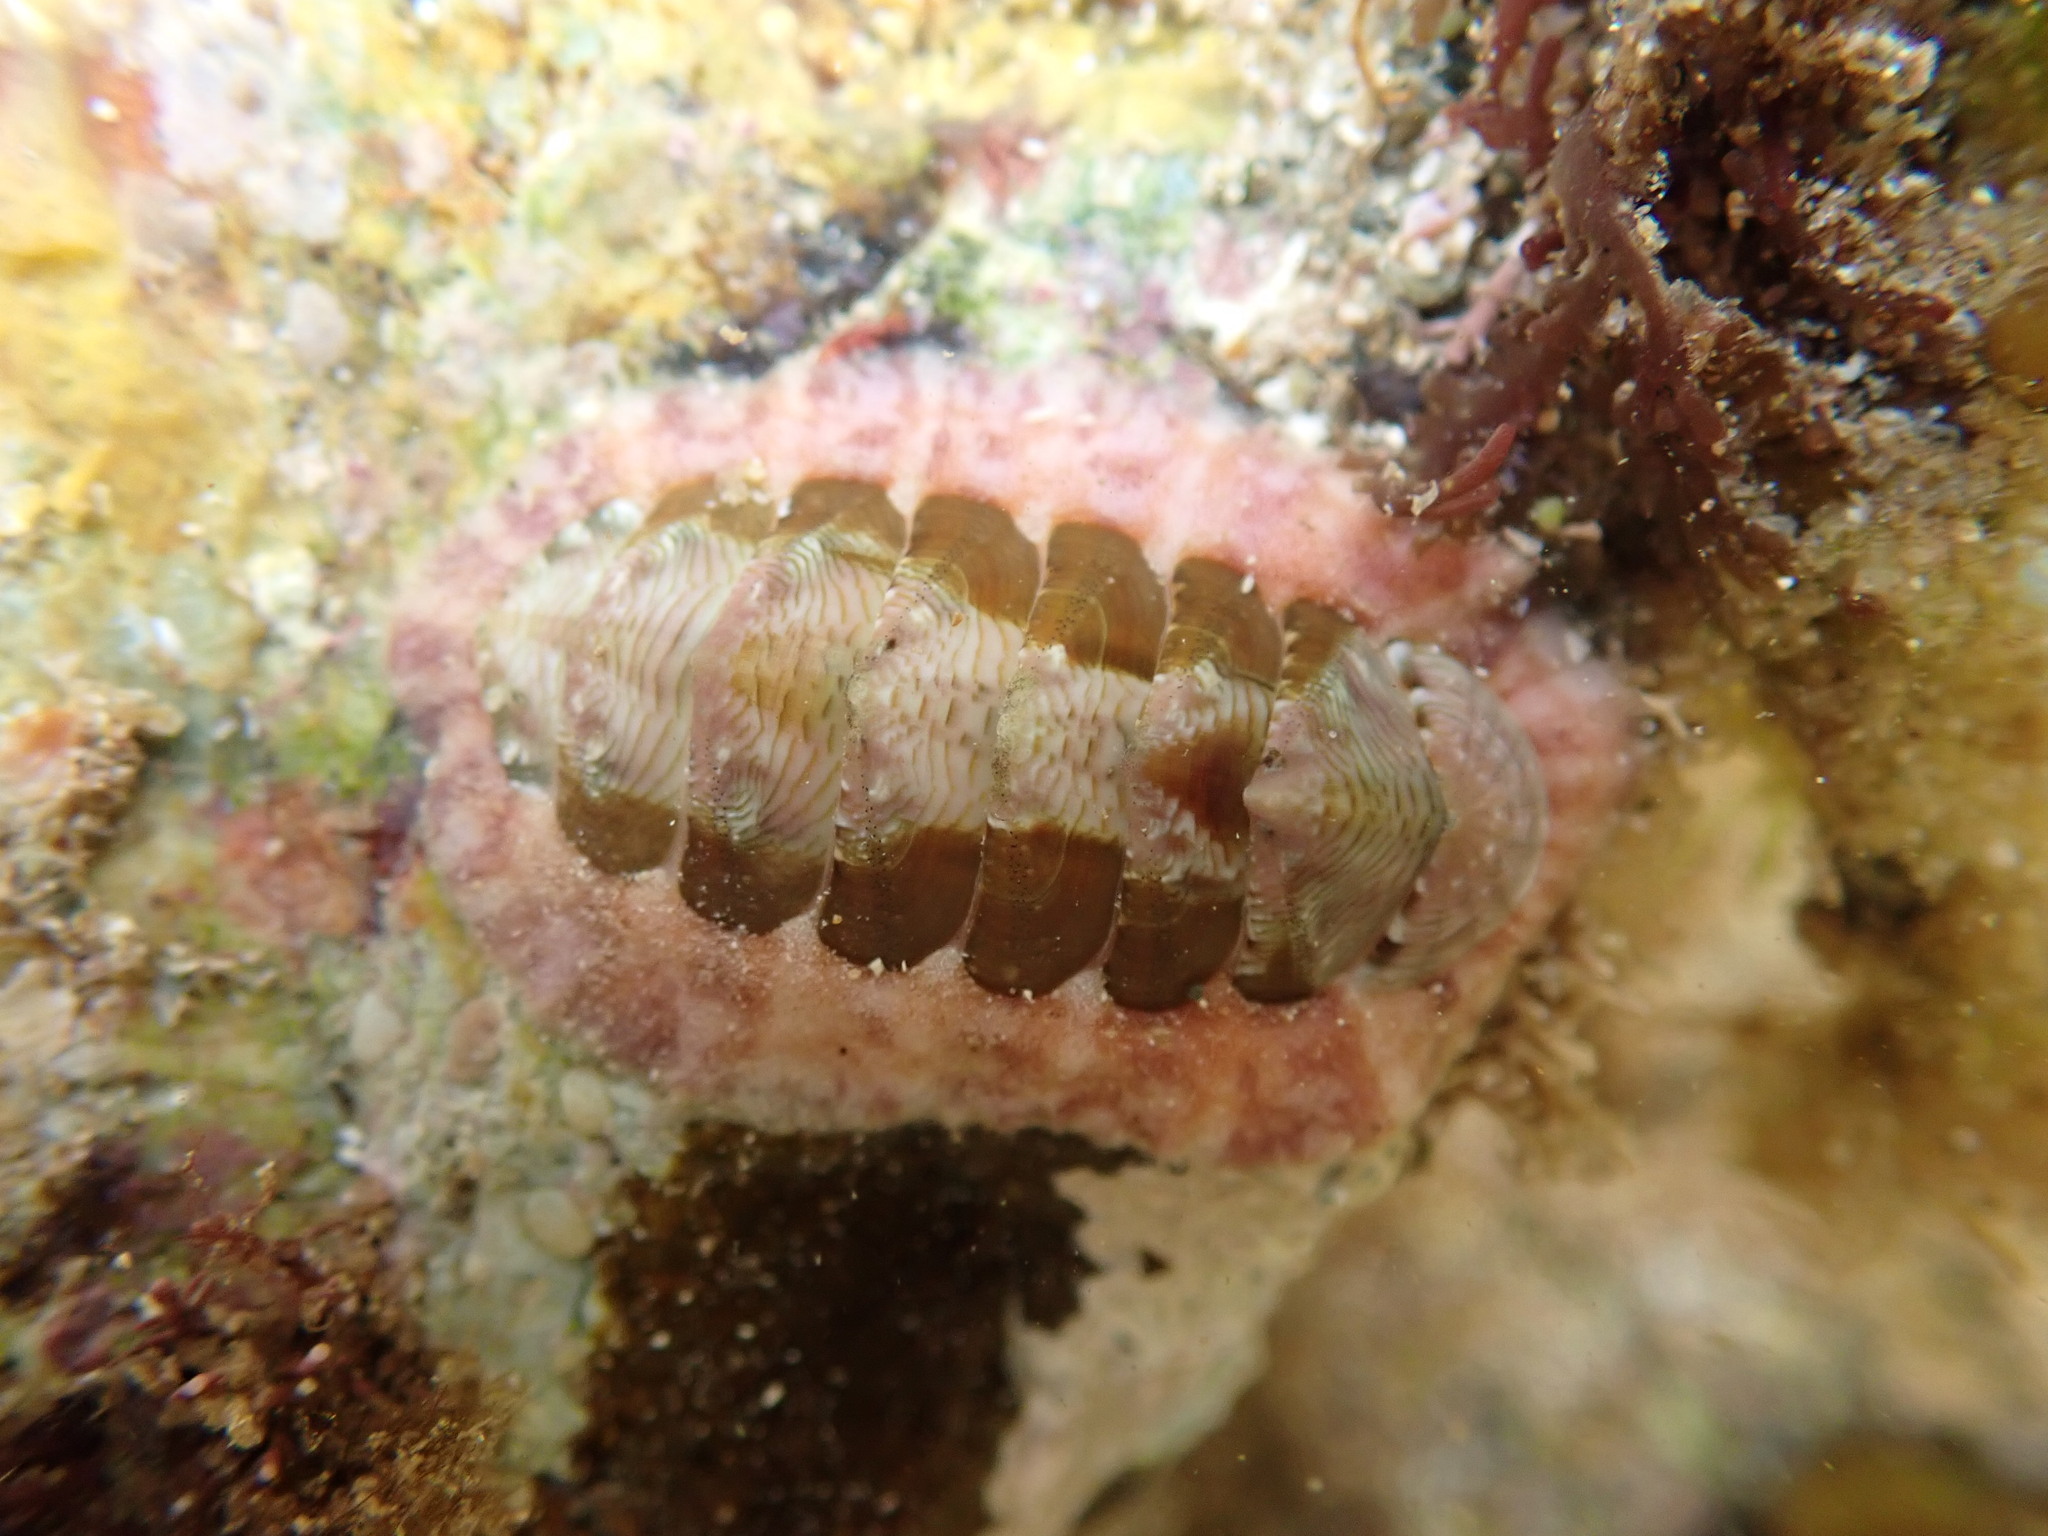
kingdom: Animalia
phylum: Mollusca
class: Polyplacophora
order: Chitonida
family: Chitonidae
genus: Onithochiton
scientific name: Onithochiton neglectus
